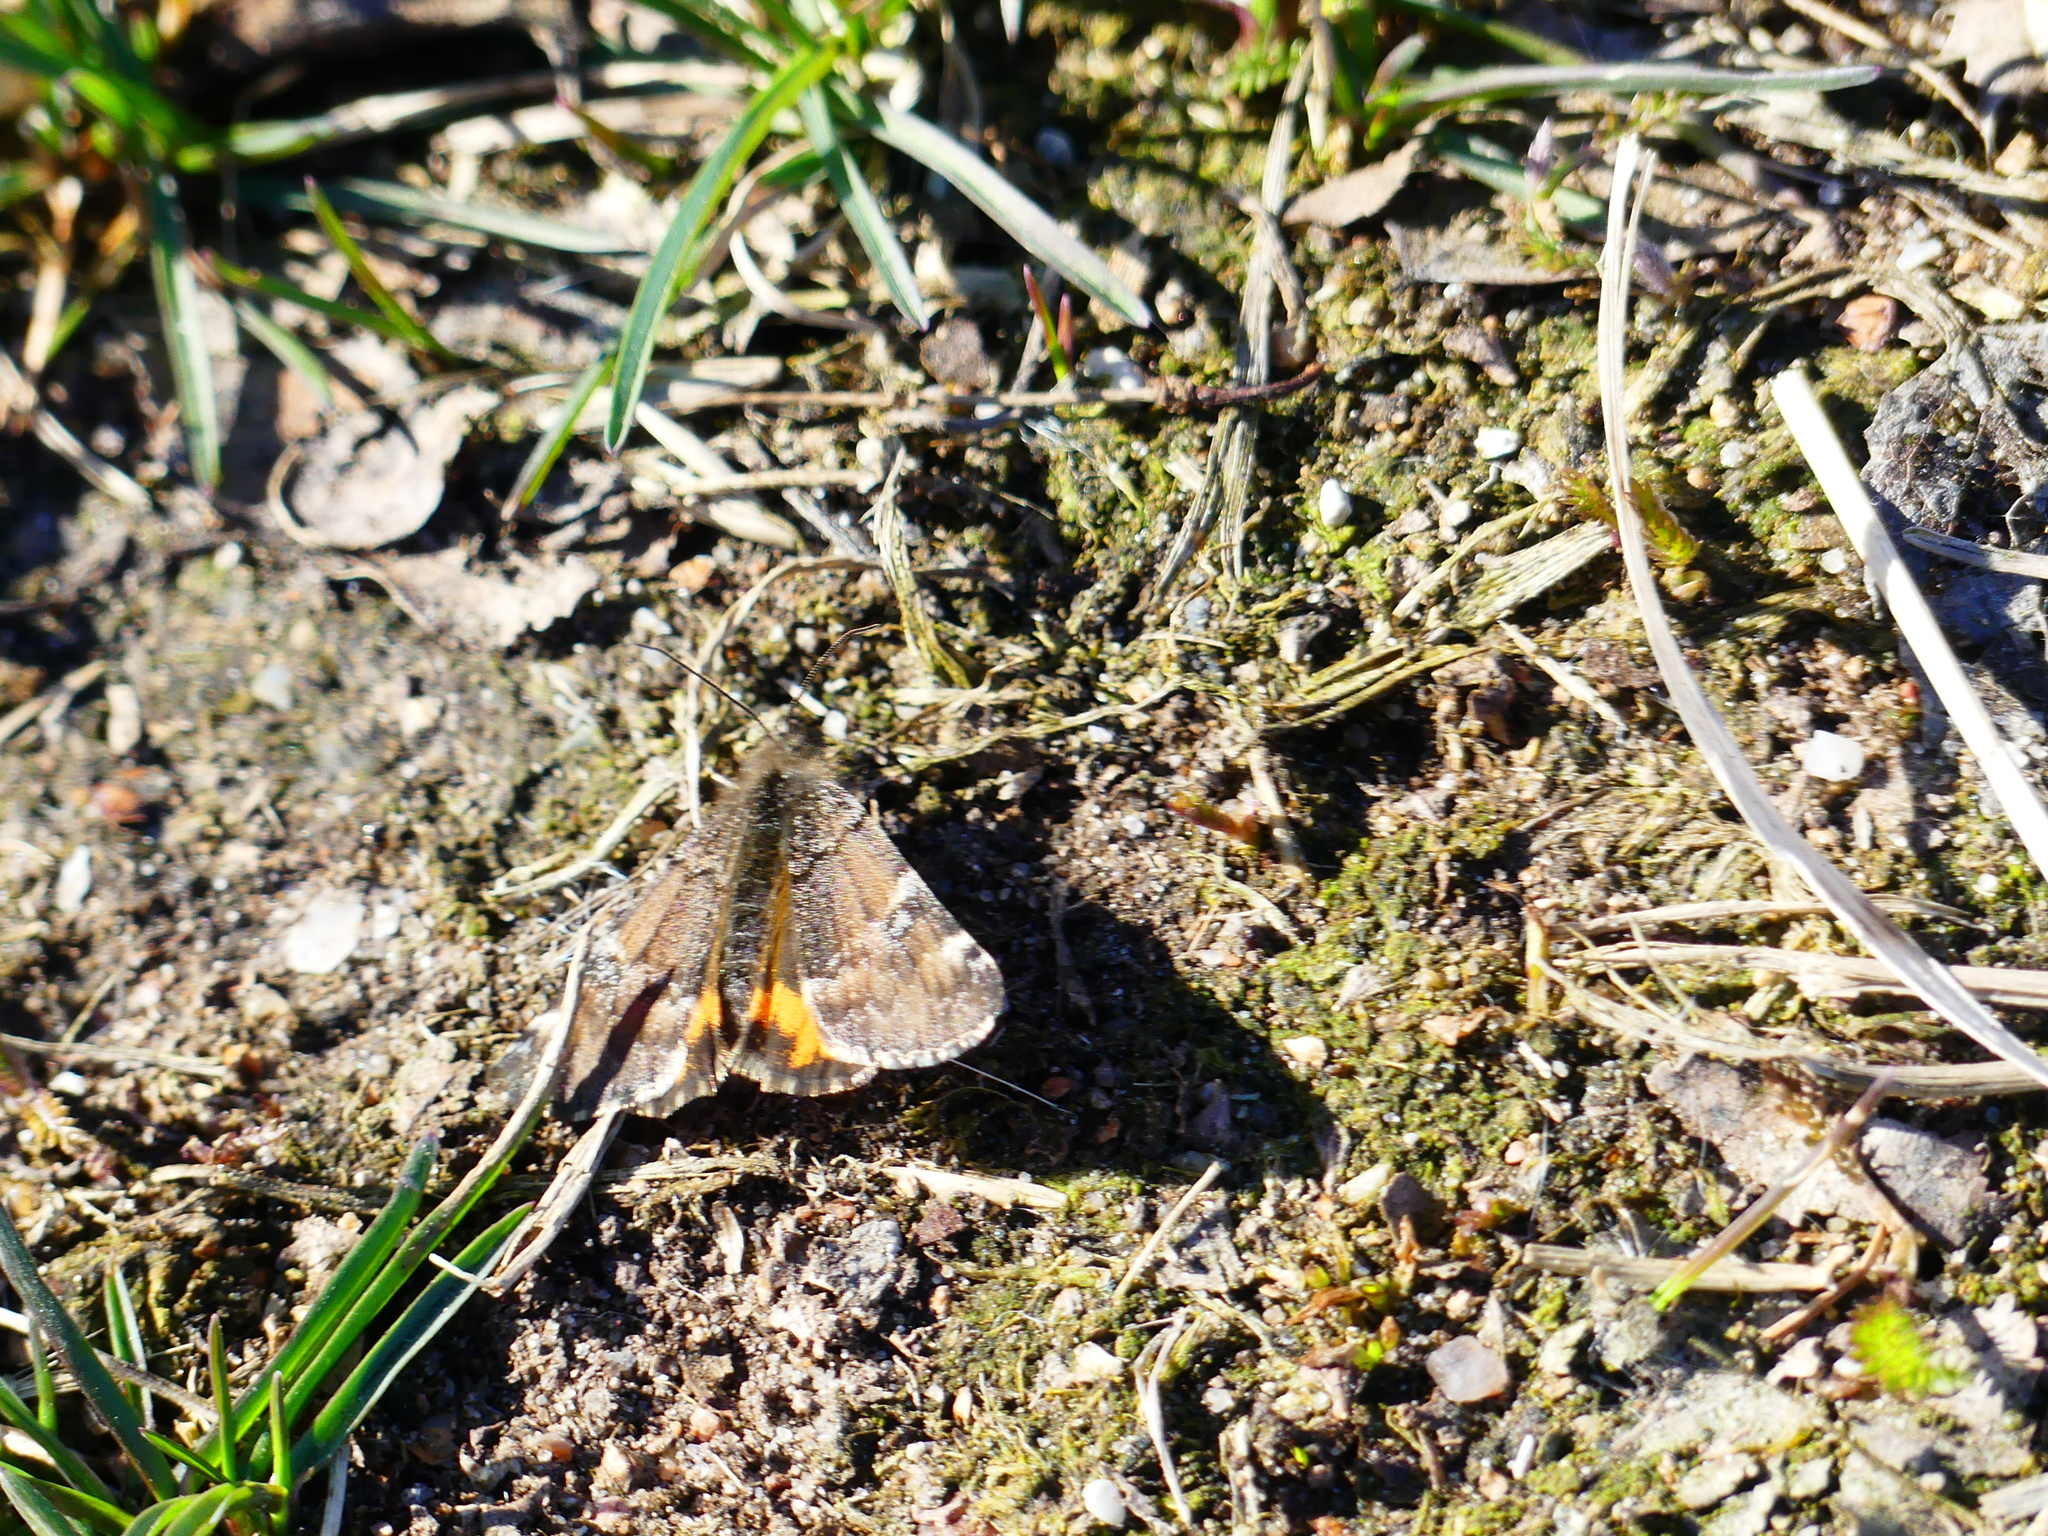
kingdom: Animalia
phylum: Arthropoda
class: Insecta
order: Lepidoptera
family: Geometridae
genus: Archiearis
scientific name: Archiearis parthenias
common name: Orange underwing
